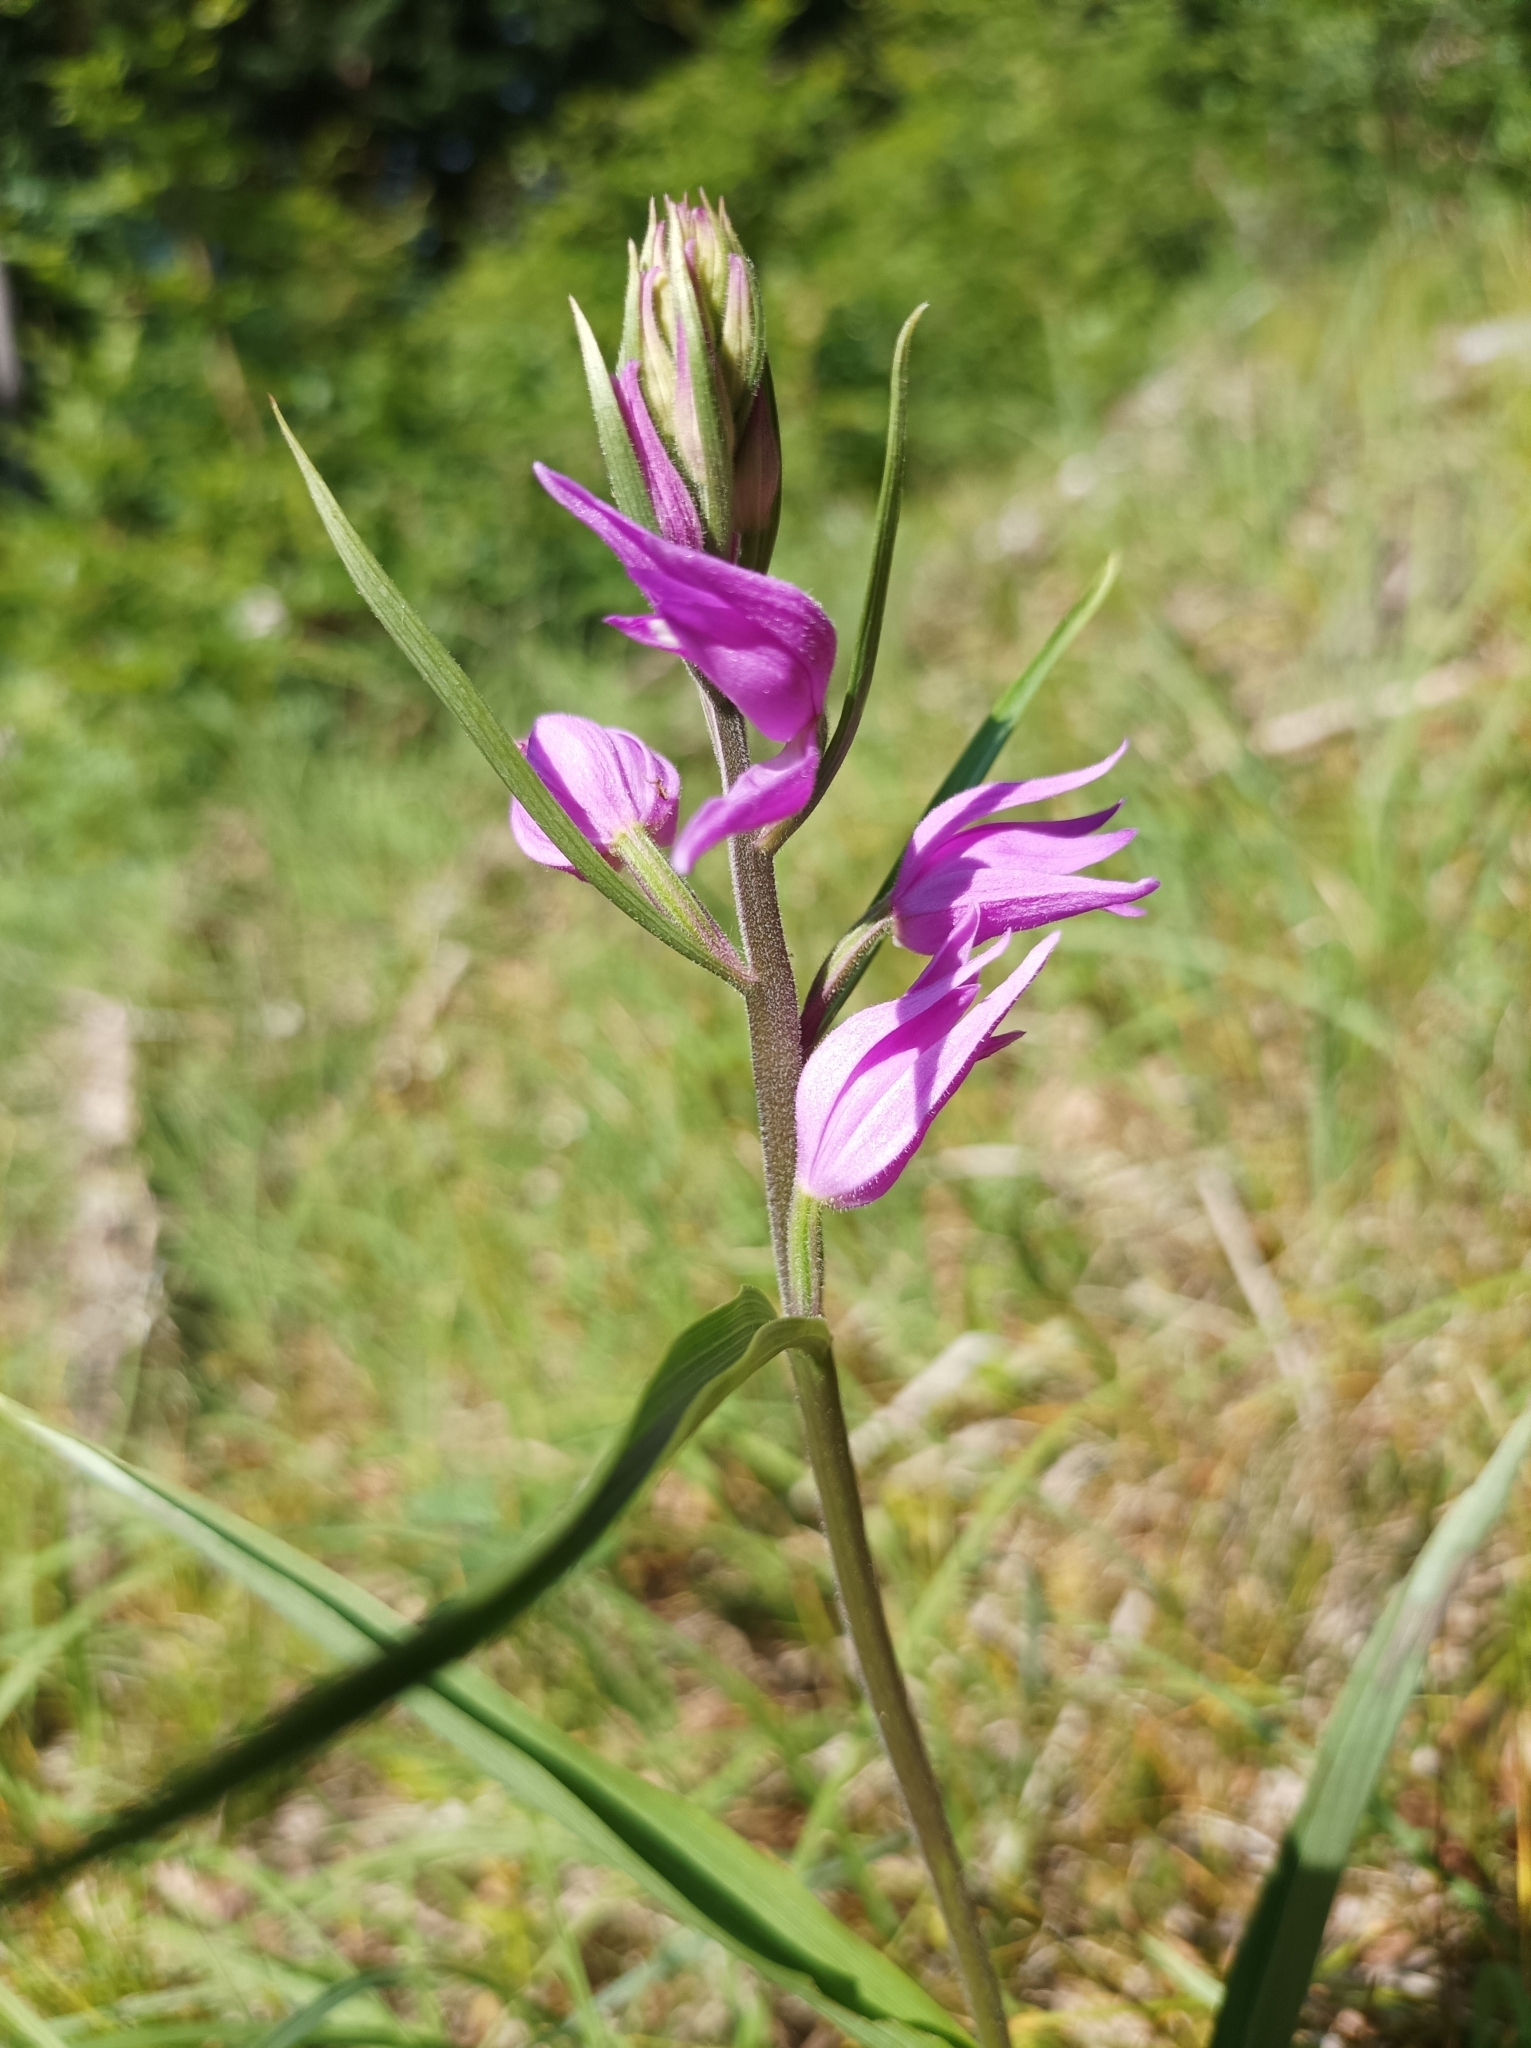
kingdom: Plantae
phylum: Tracheophyta
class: Liliopsida
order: Asparagales
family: Orchidaceae
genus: Cephalanthera
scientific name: Cephalanthera rubra
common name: Red helleborine
